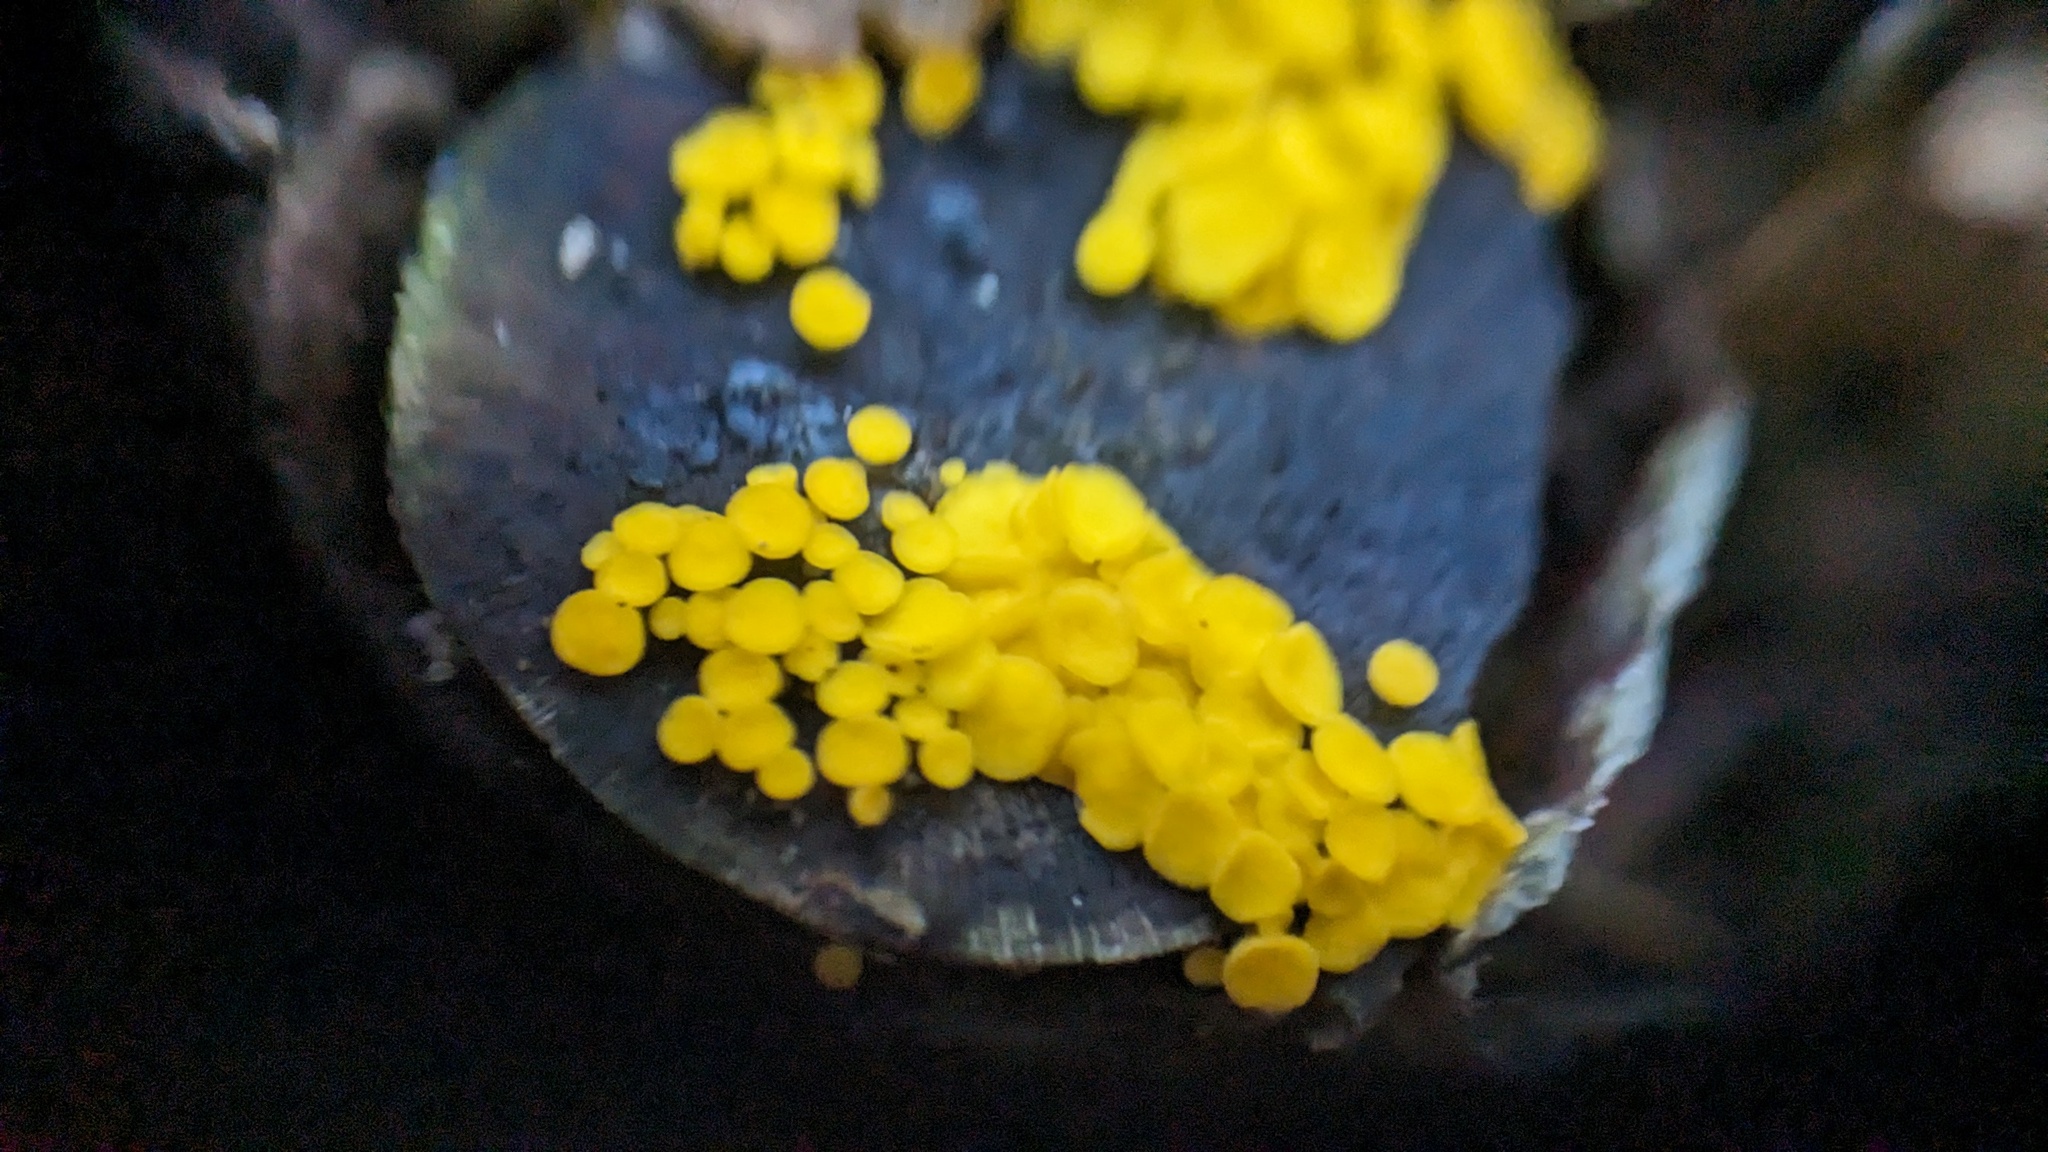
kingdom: Fungi
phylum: Ascomycota
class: Leotiomycetes
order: Helotiales
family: Pezizellaceae
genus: Calycina
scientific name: Calycina citrina
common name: Yellow fairy cups
